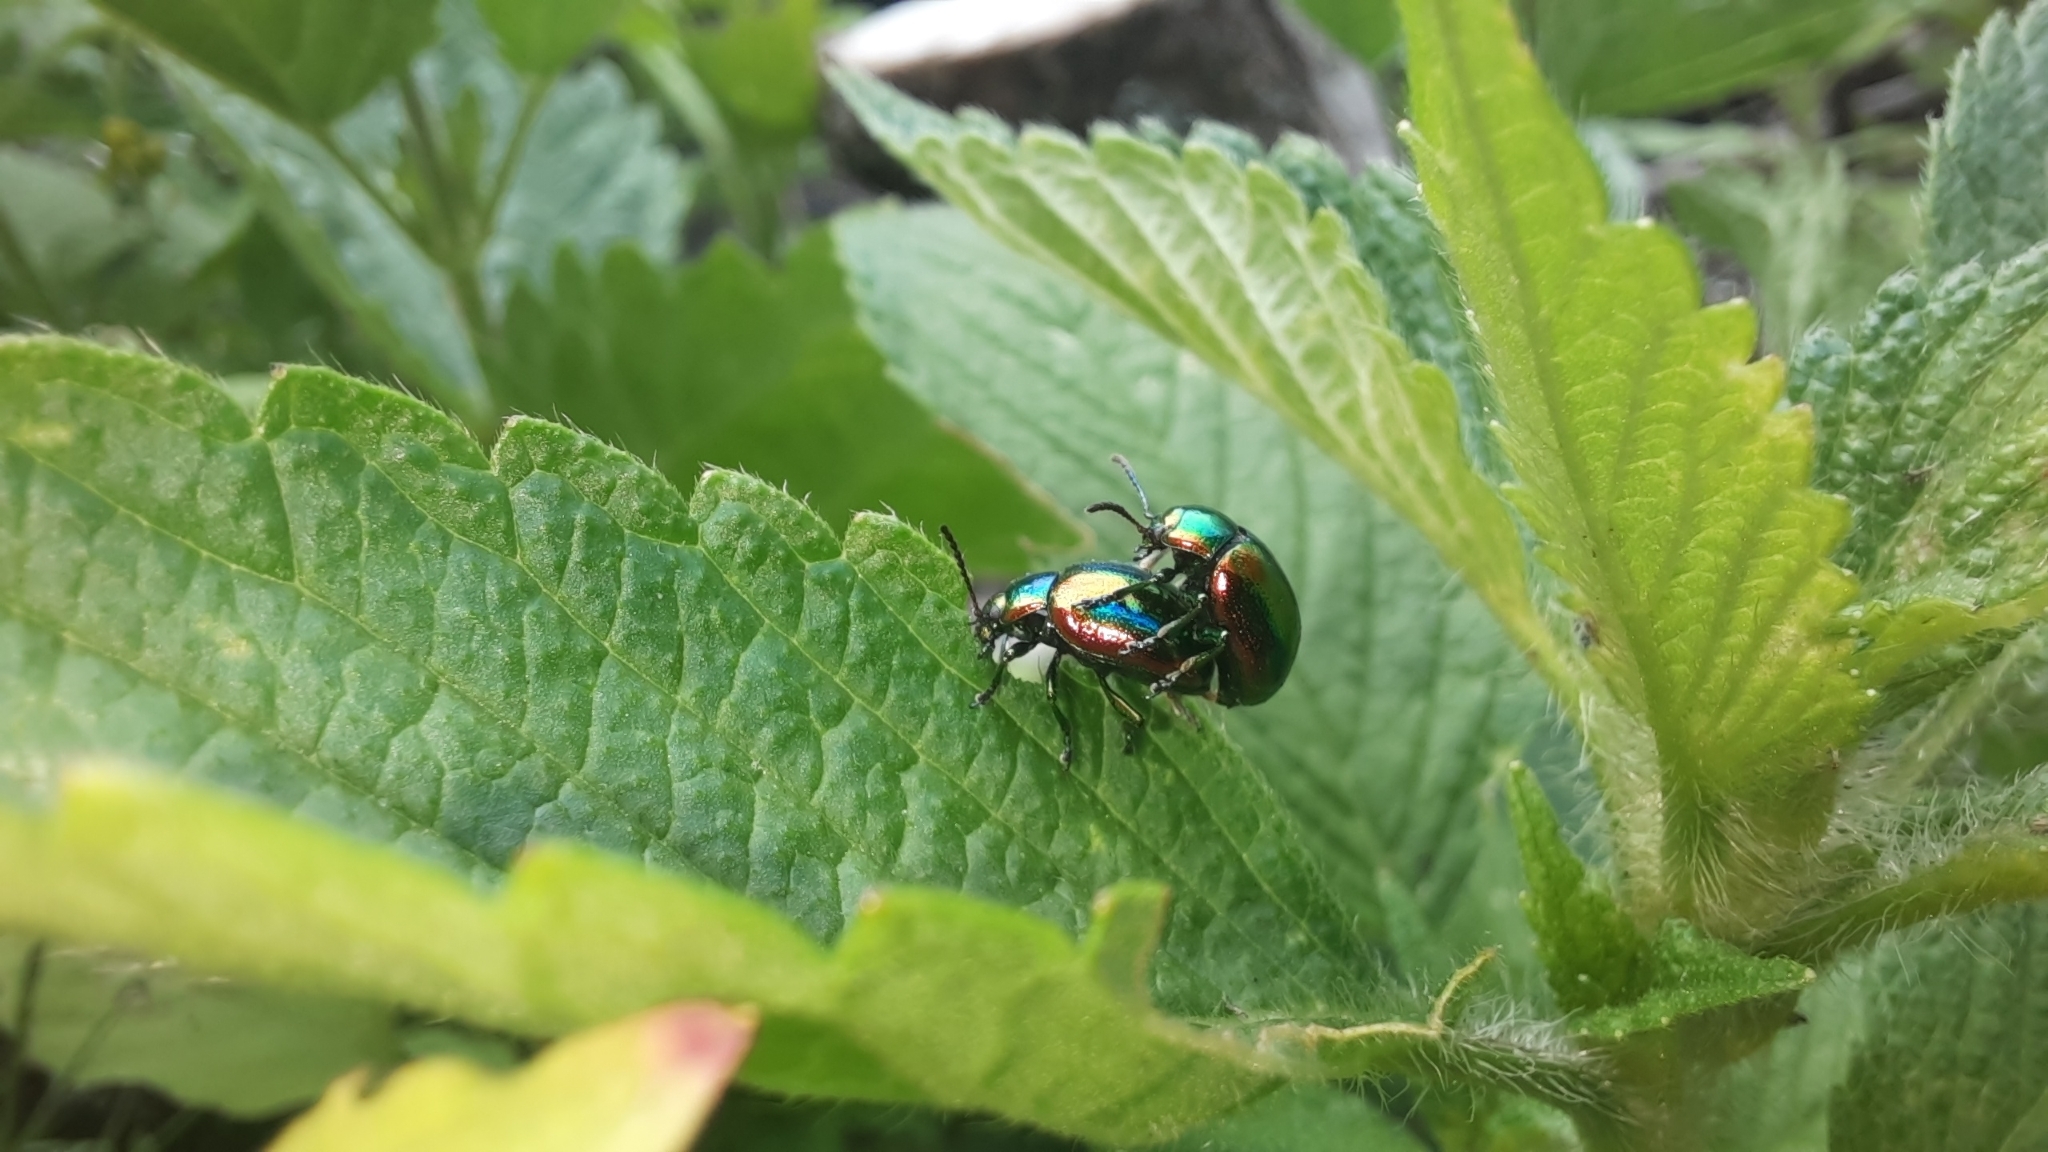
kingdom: Animalia
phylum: Arthropoda
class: Insecta
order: Coleoptera
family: Chrysomelidae
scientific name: Chrysomelidae
